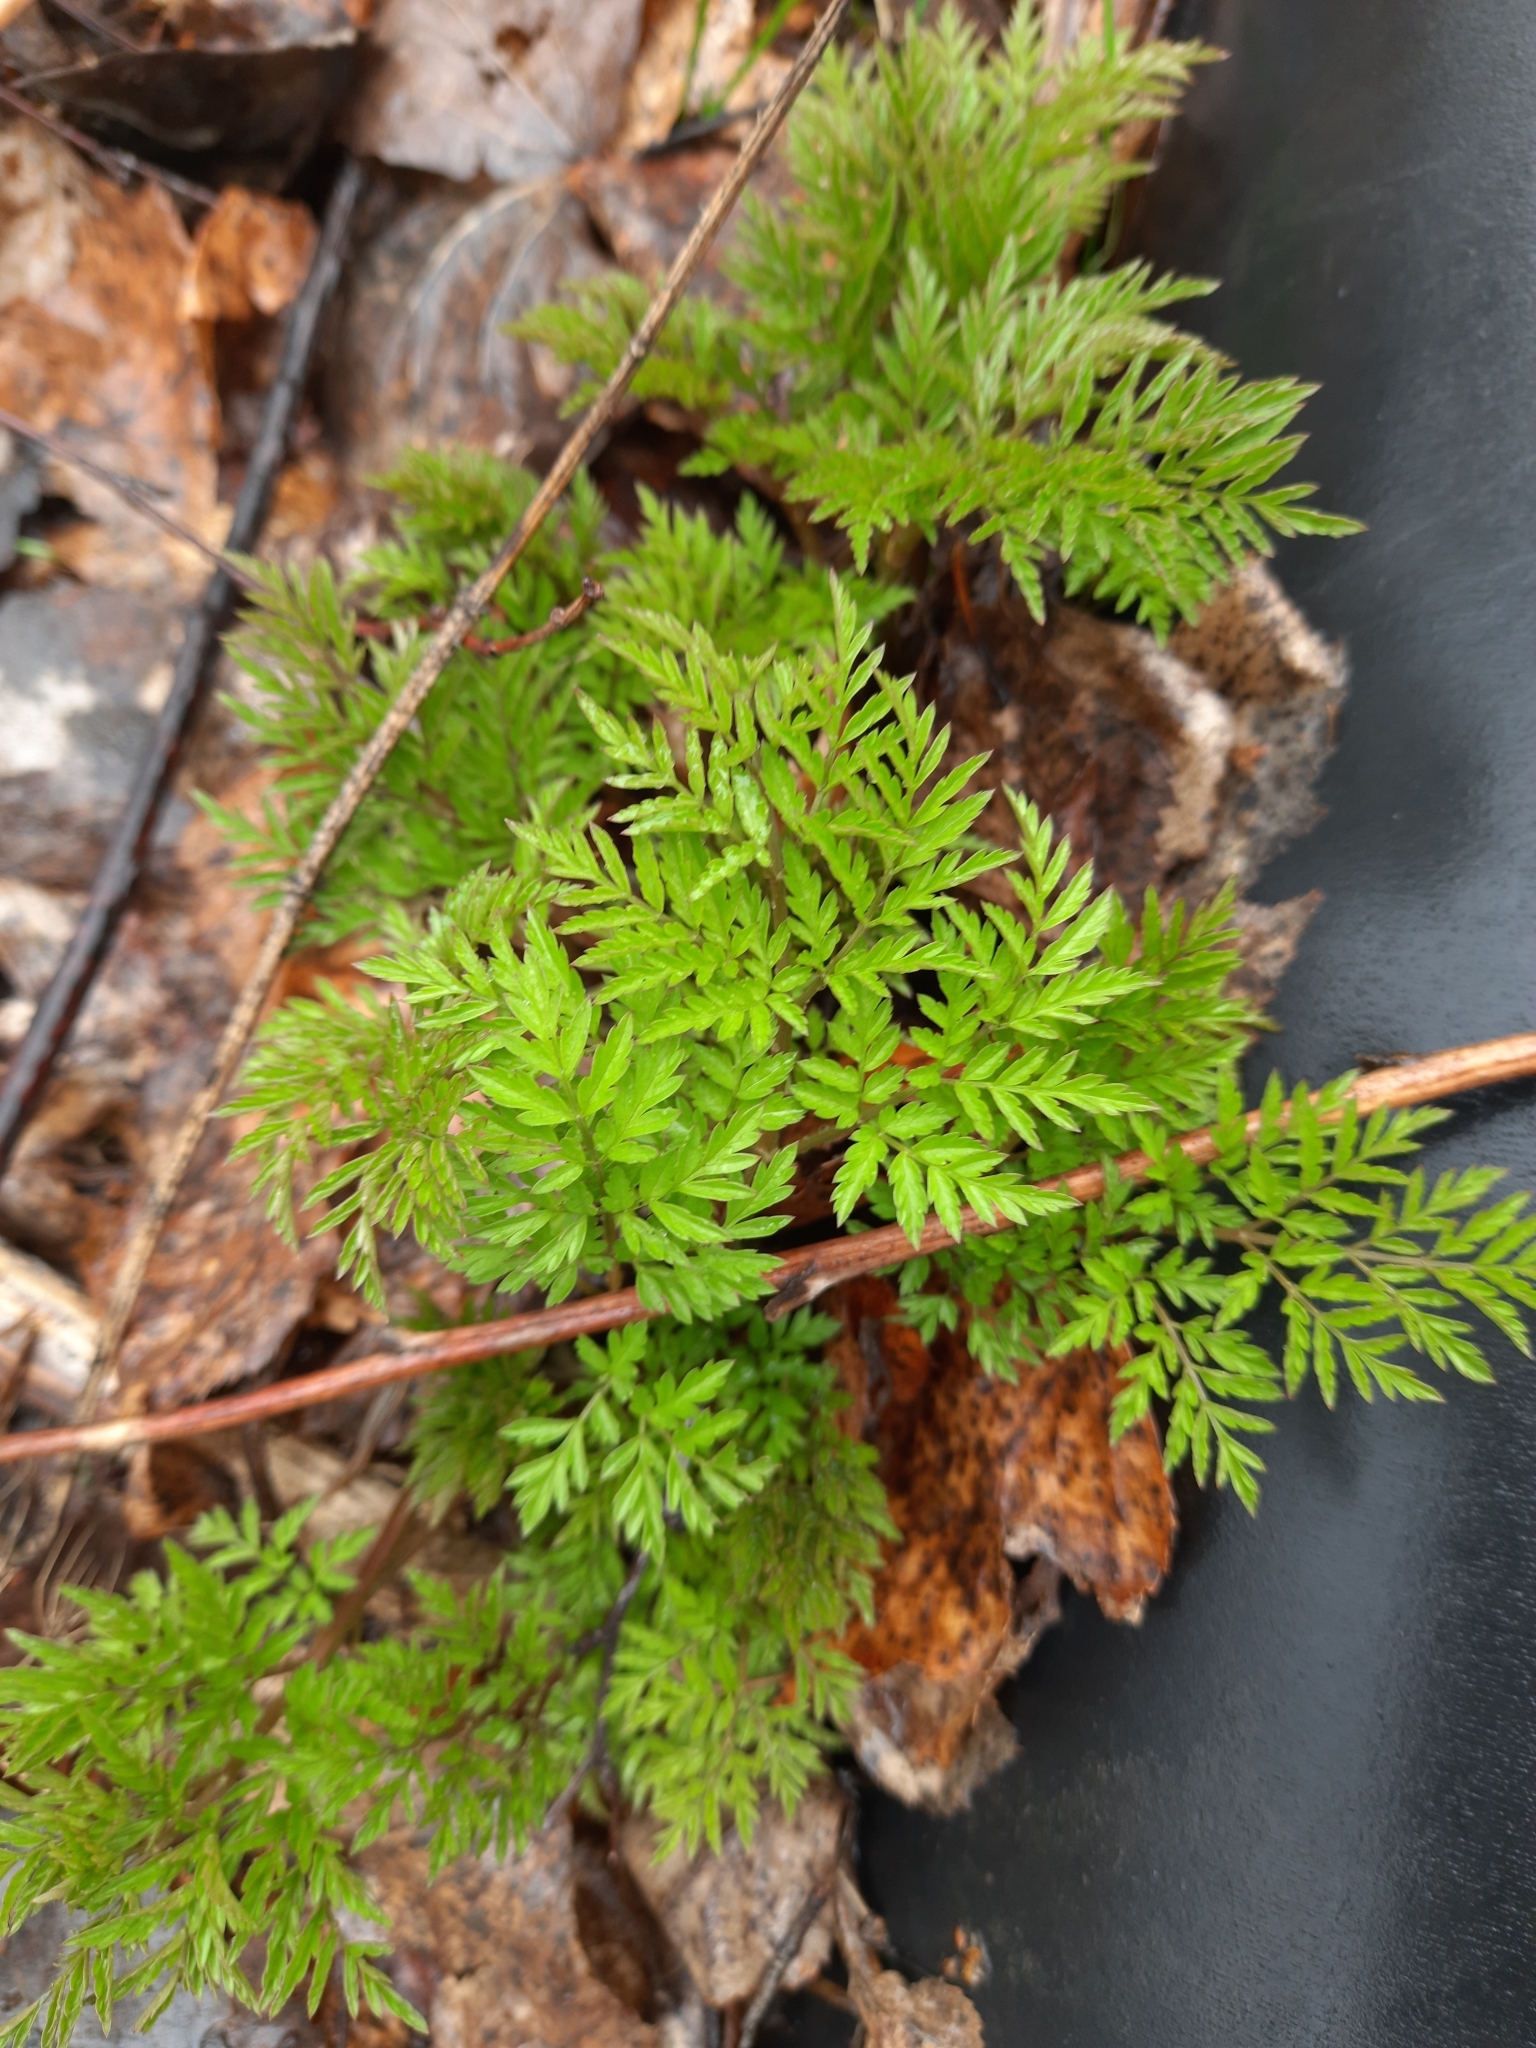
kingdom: Plantae
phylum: Tracheophyta
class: Magnoliopsida
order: Apiales
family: Apiaceae
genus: Anthriscus
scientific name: Anthriscus sylvestris
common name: Cow parsley
